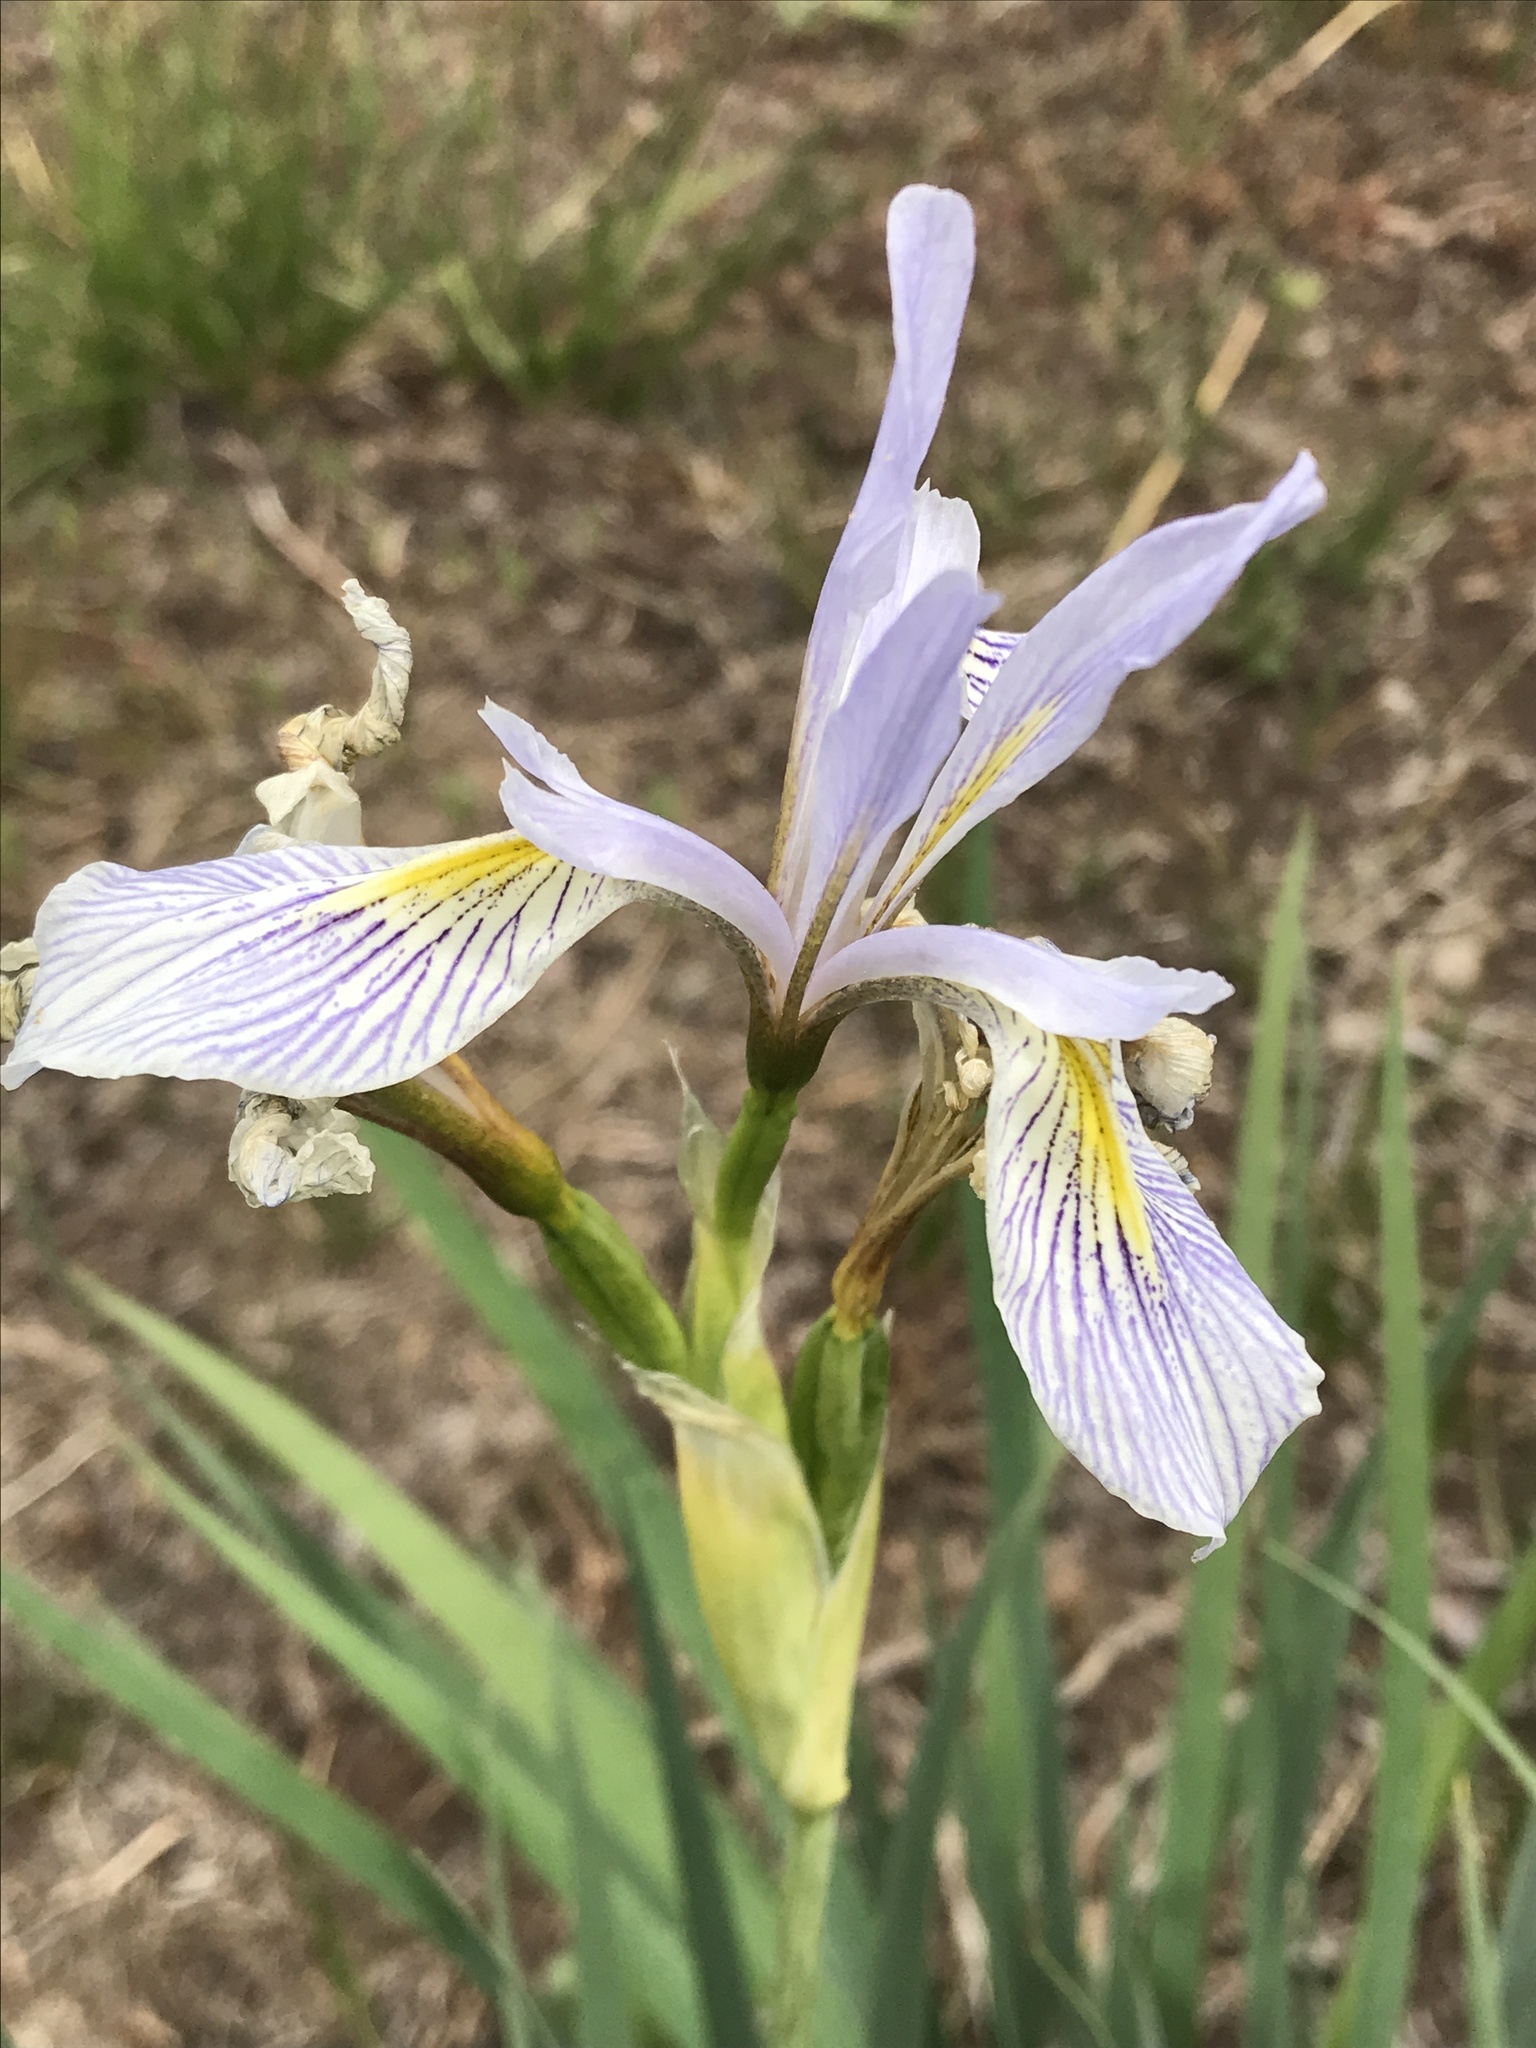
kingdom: Plantae
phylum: Tracheophyta
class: Liliopsida
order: Asparagales
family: Iridaceae
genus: Iris
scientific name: Iris missouriensis
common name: Rocky mountain iris
